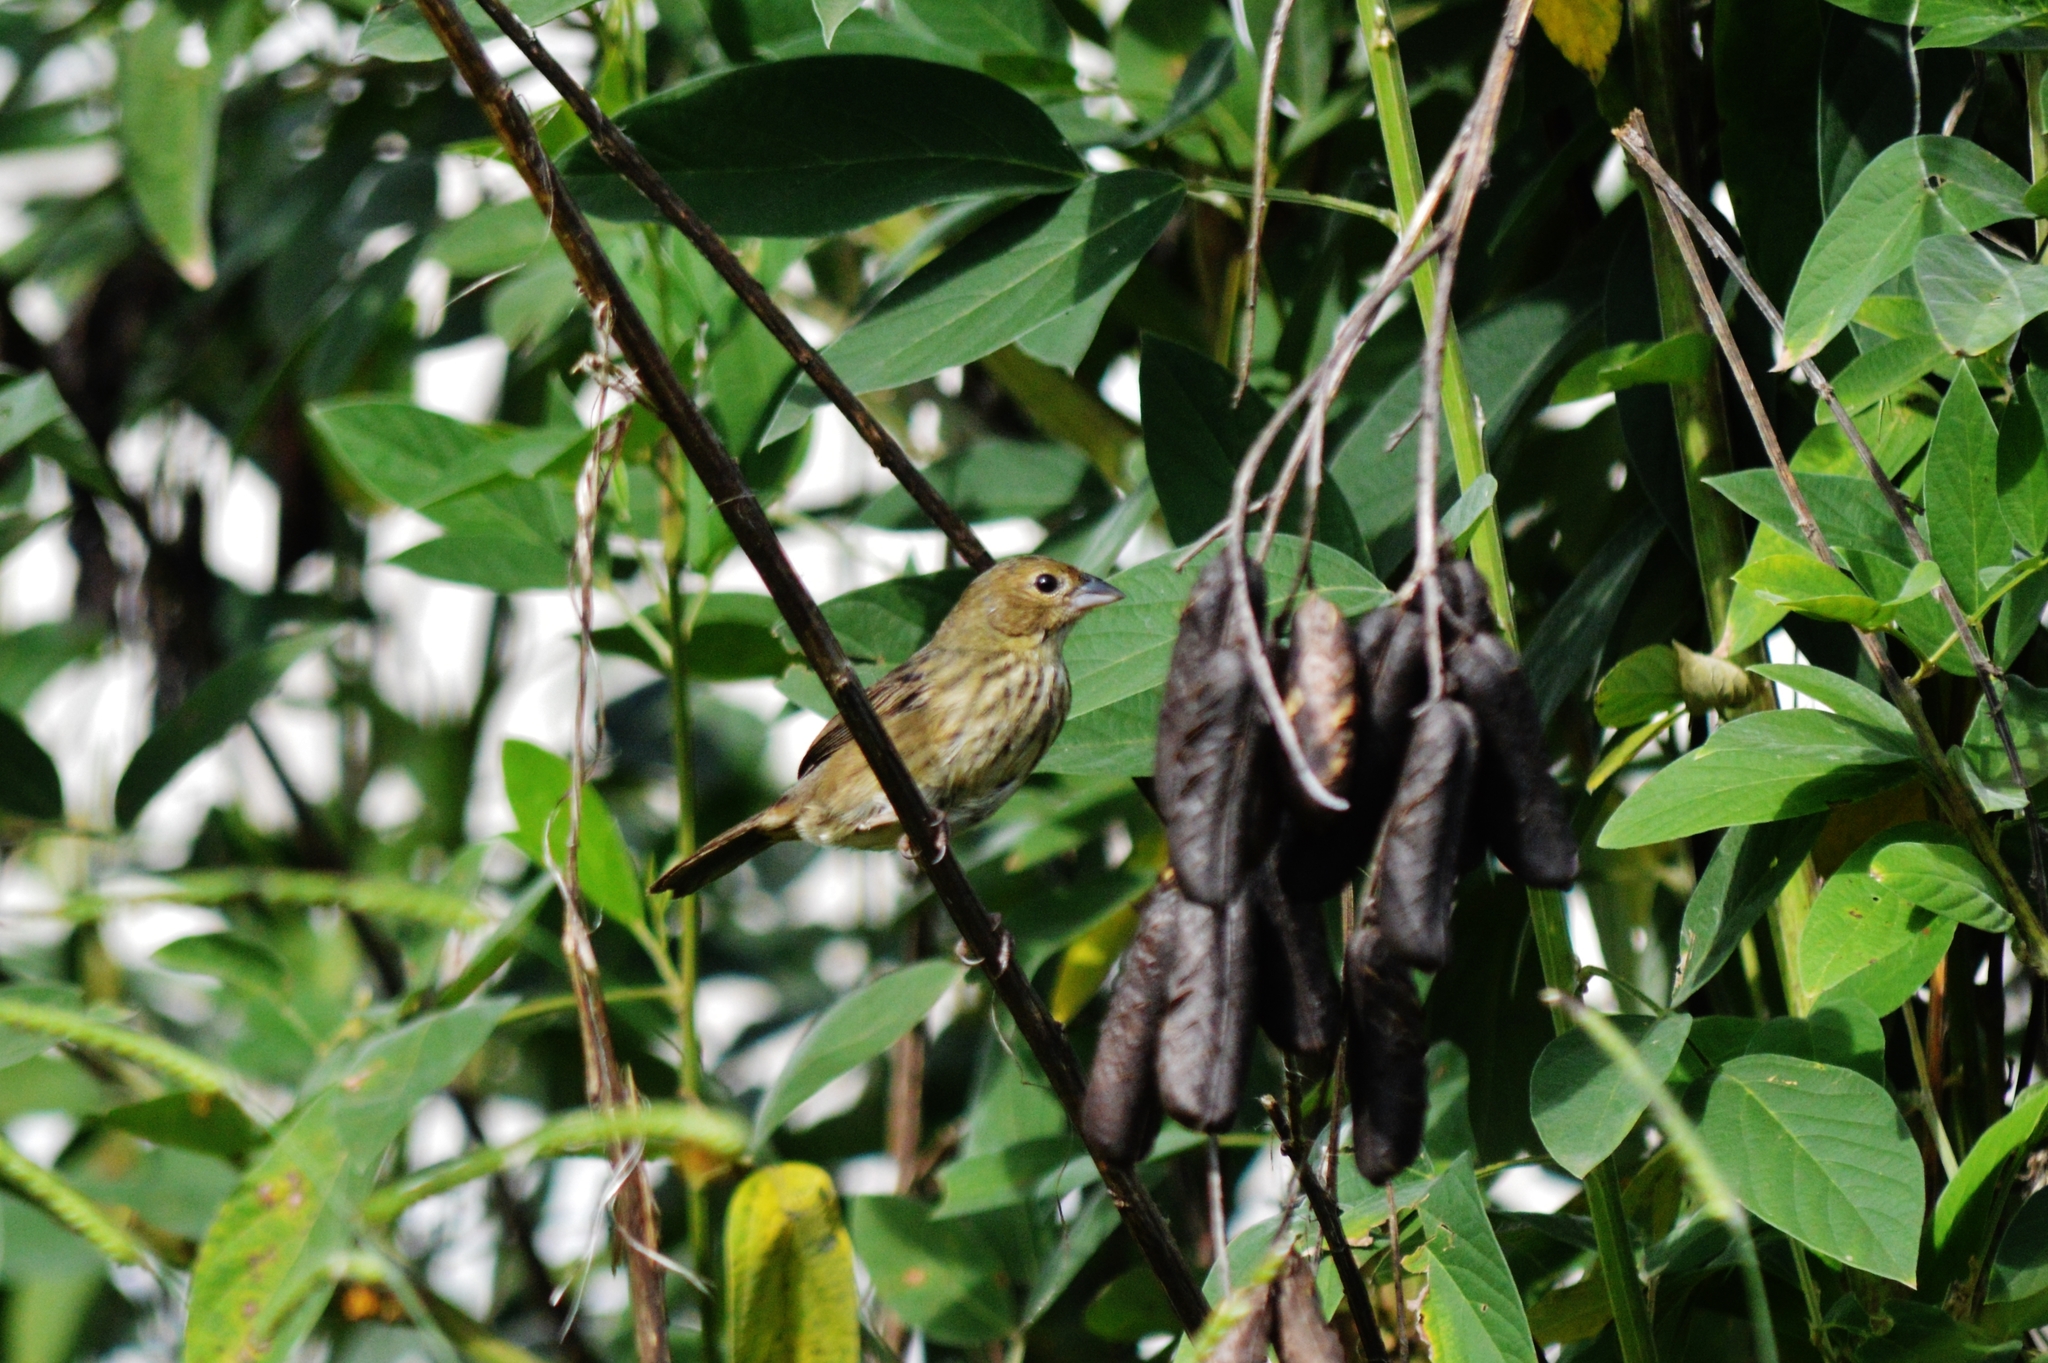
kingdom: Animalia
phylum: Chordata
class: Aves
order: Passeriformes
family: Thraupidae
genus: Volatinia
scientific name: Volatinia jacarina
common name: Blue-black grassquit
